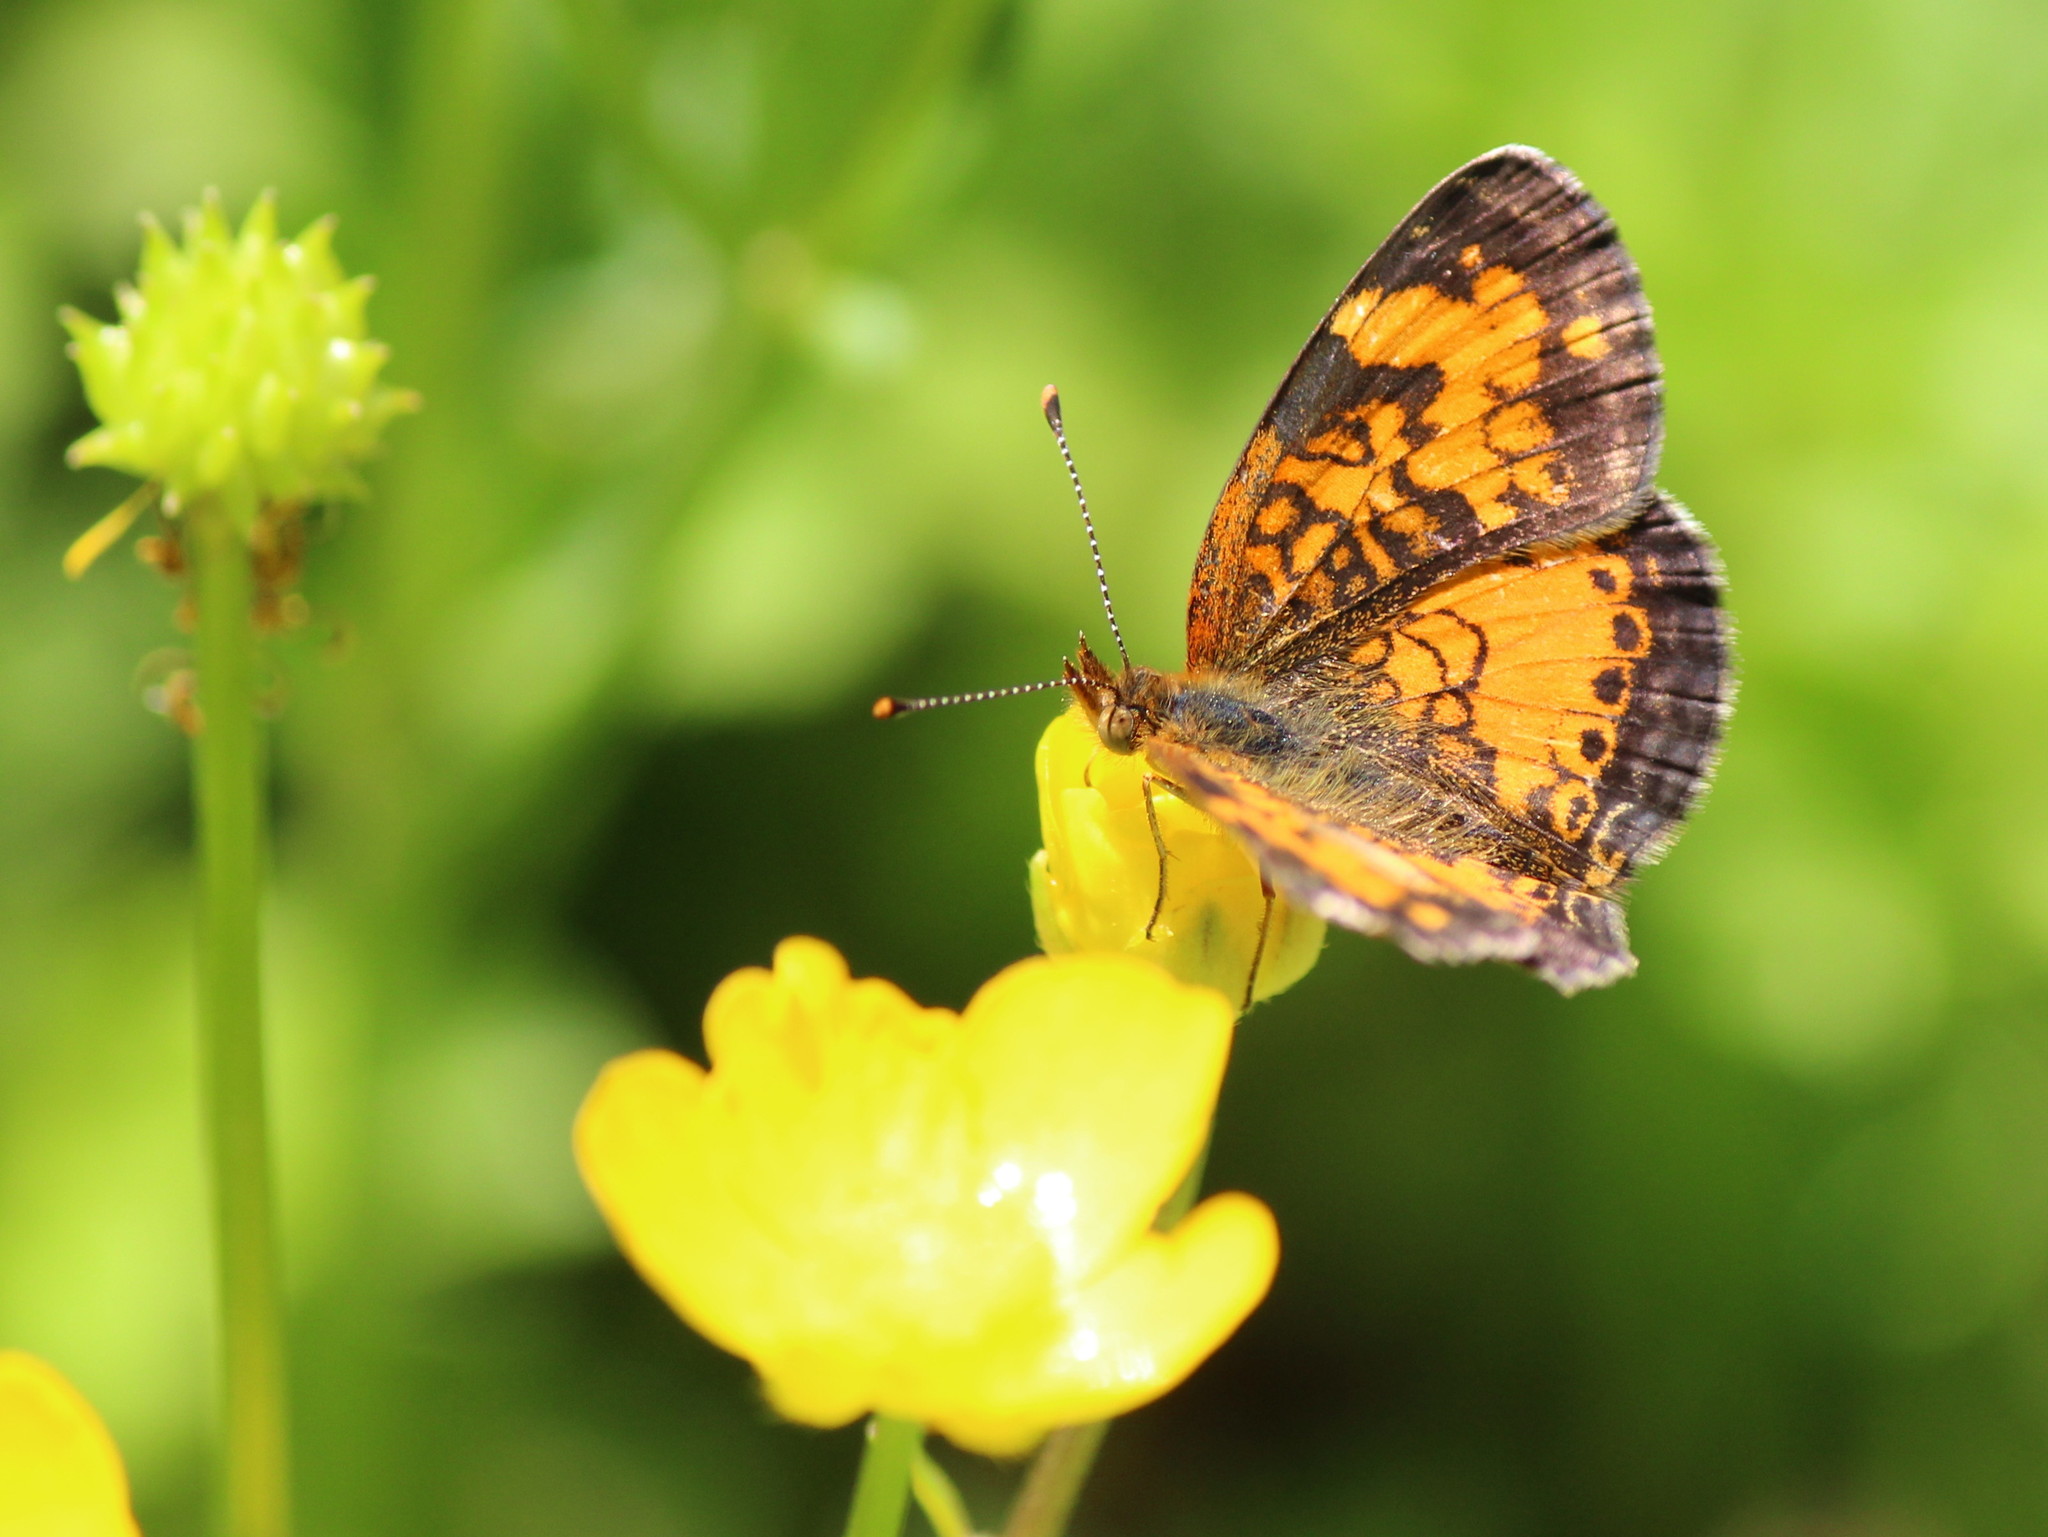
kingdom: Animalia
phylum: Arthropoda
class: Insecta
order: Lepidoptera
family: Nymphalidae
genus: Phyciodes
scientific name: Phyciodes tharos
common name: Pearl crescent
